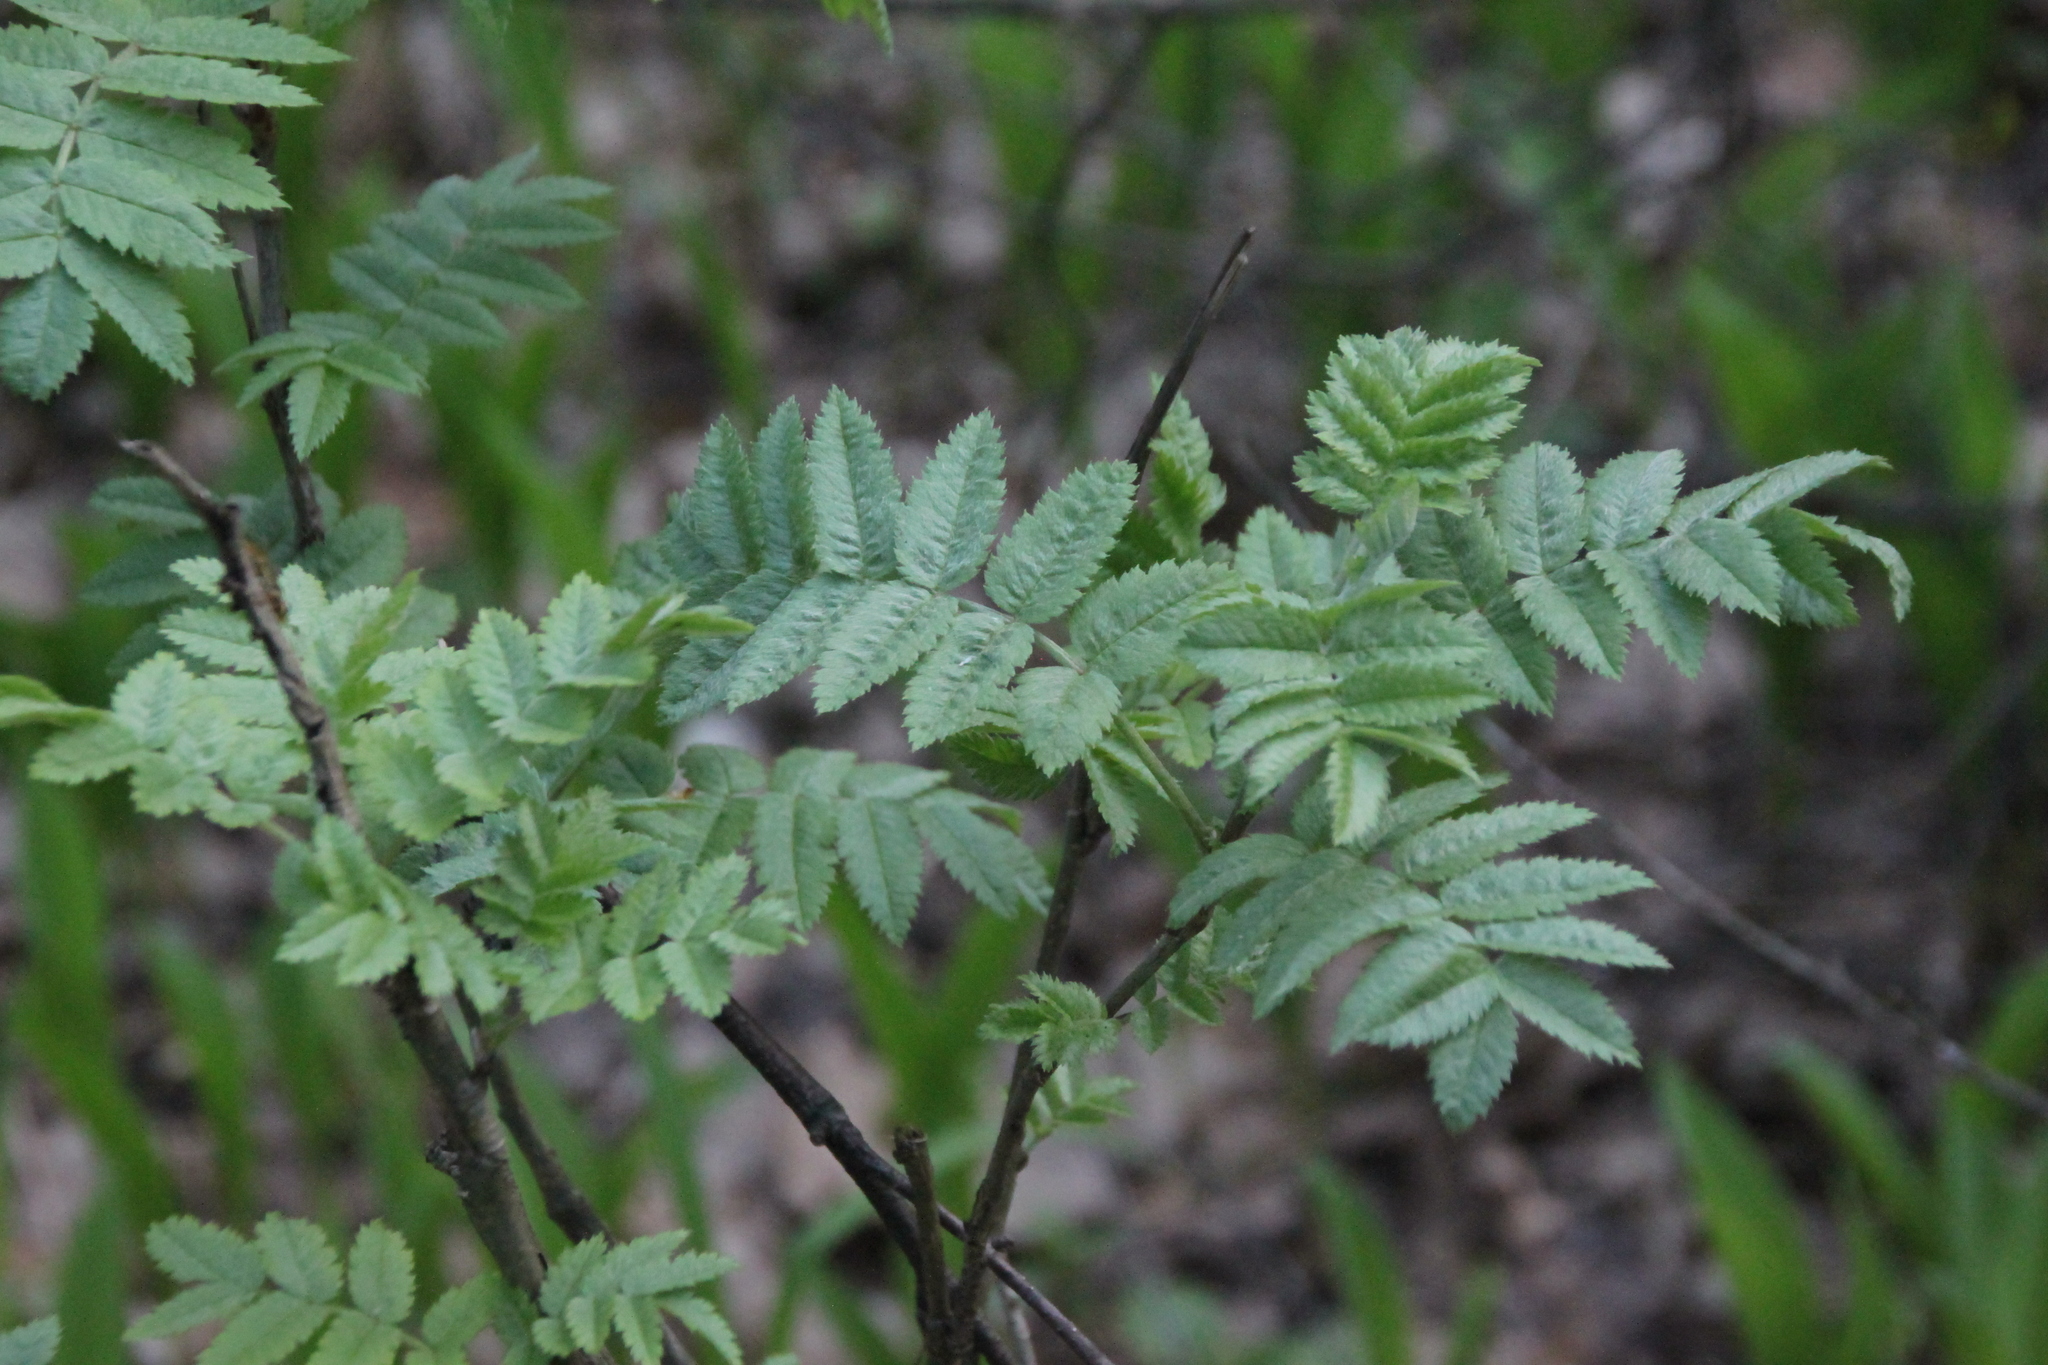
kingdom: Plantae
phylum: Tracheophyta
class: Magnoliopsida
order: Rosales
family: Rosaceae
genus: Sorbus
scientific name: Sorbus aucuparia
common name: Rowan
